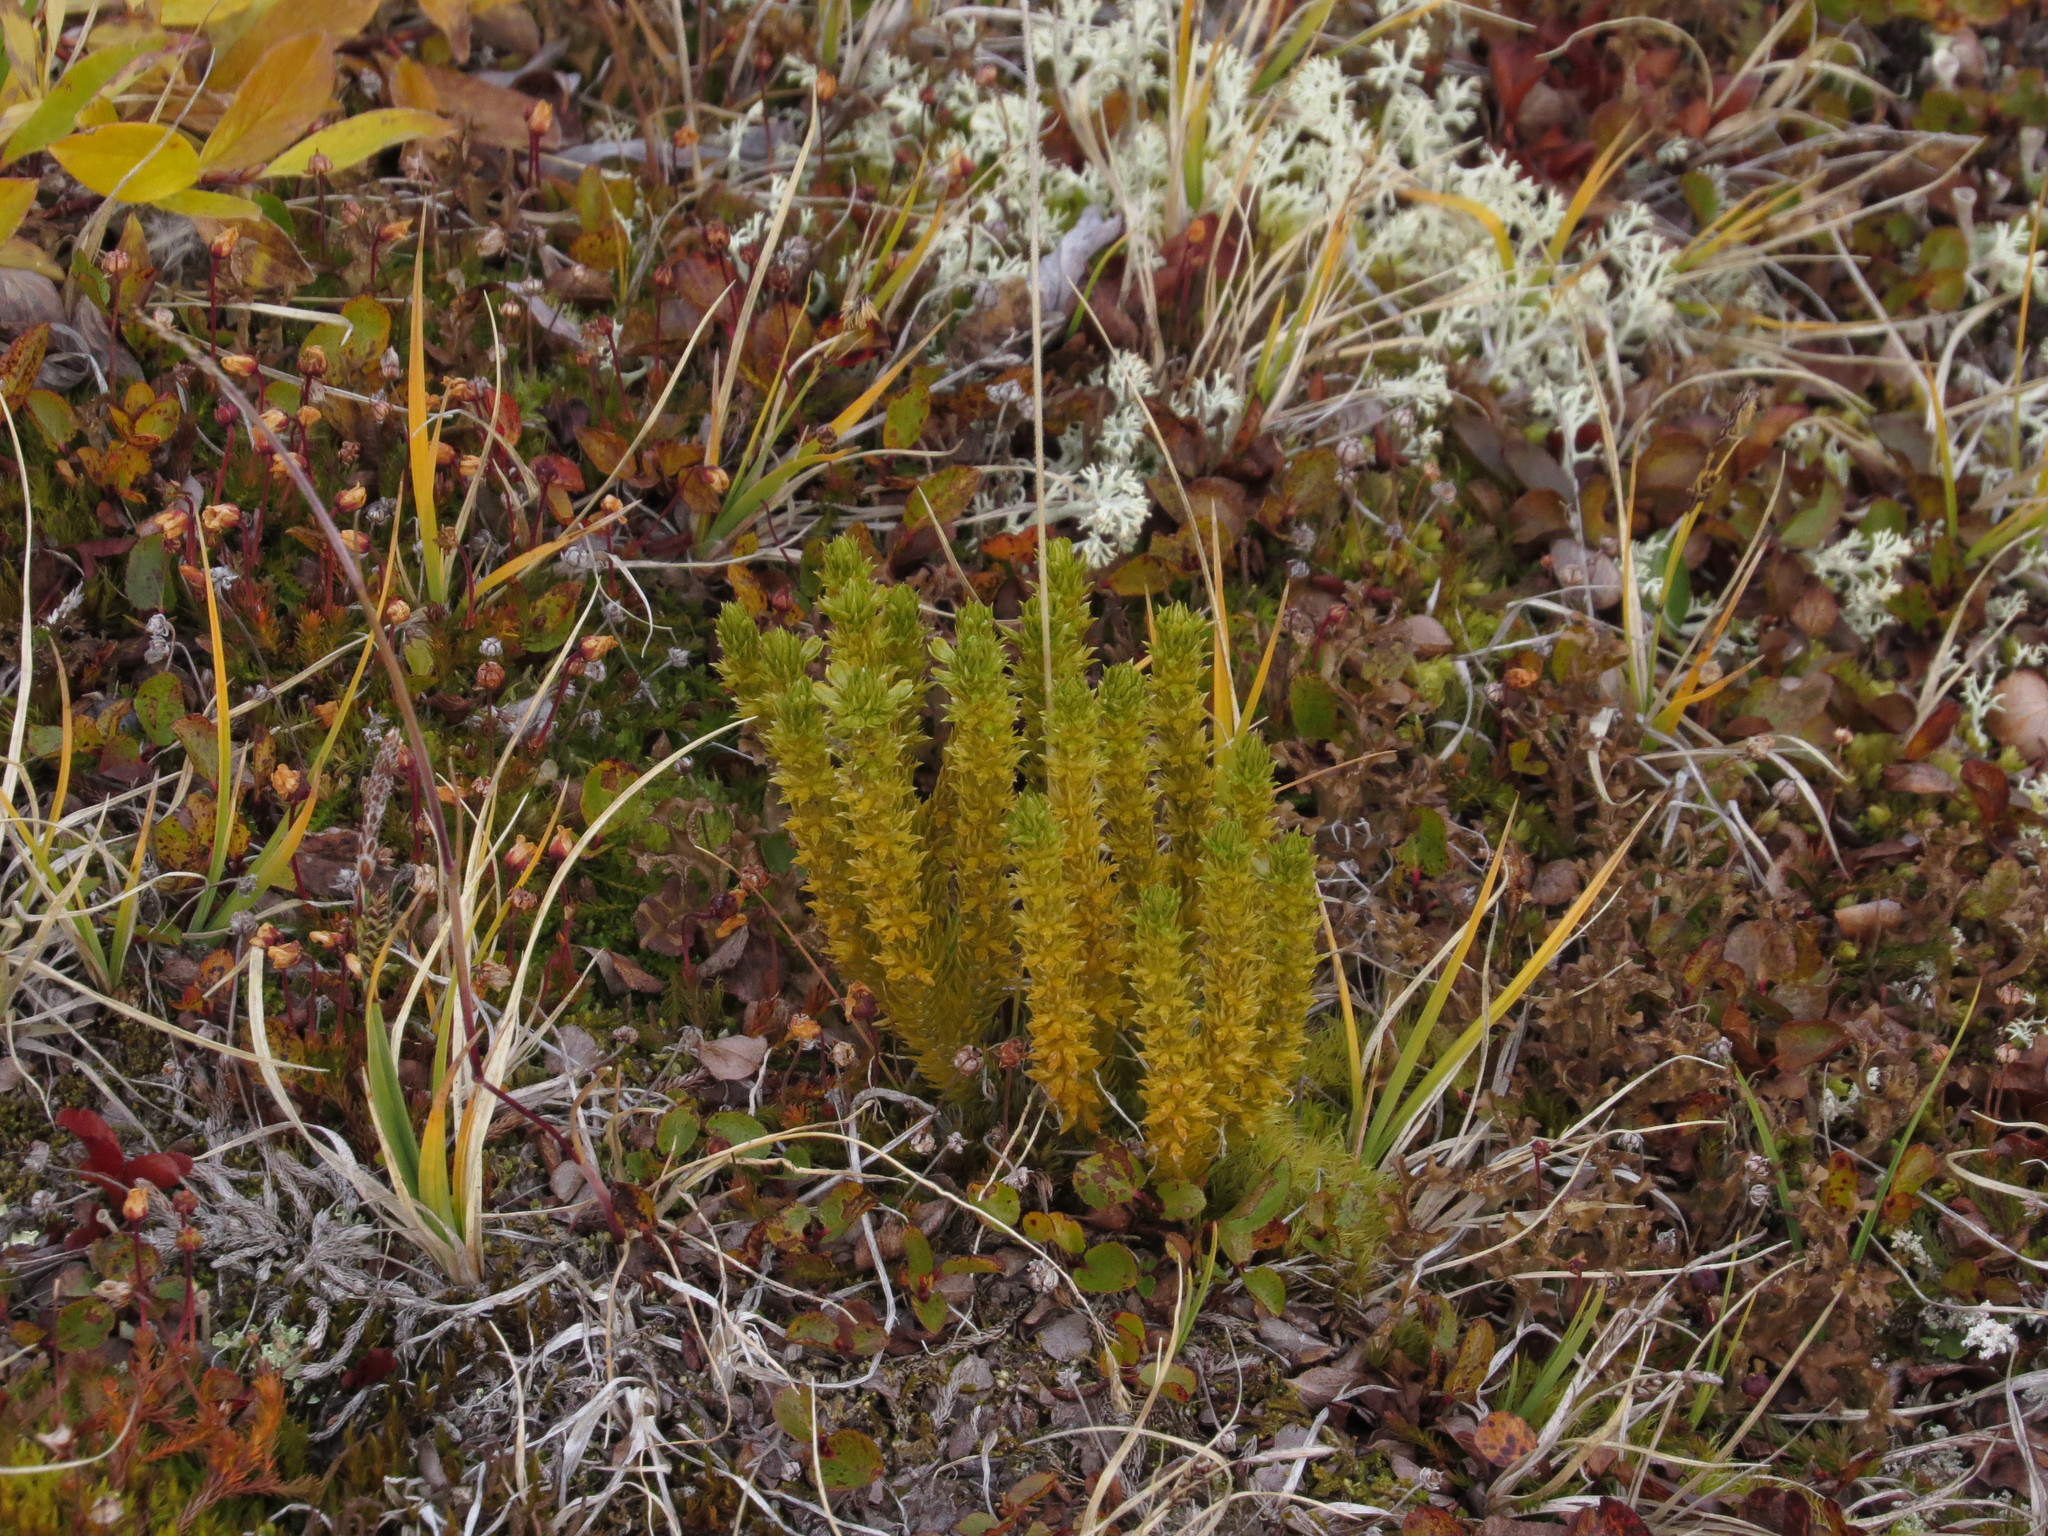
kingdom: Plantae
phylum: Tracheophyta
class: Lycopodiopsida
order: Lycopodiales
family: Lycopodiaceae
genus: Huperzia
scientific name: Huperzia selago
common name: Northern firmoss
